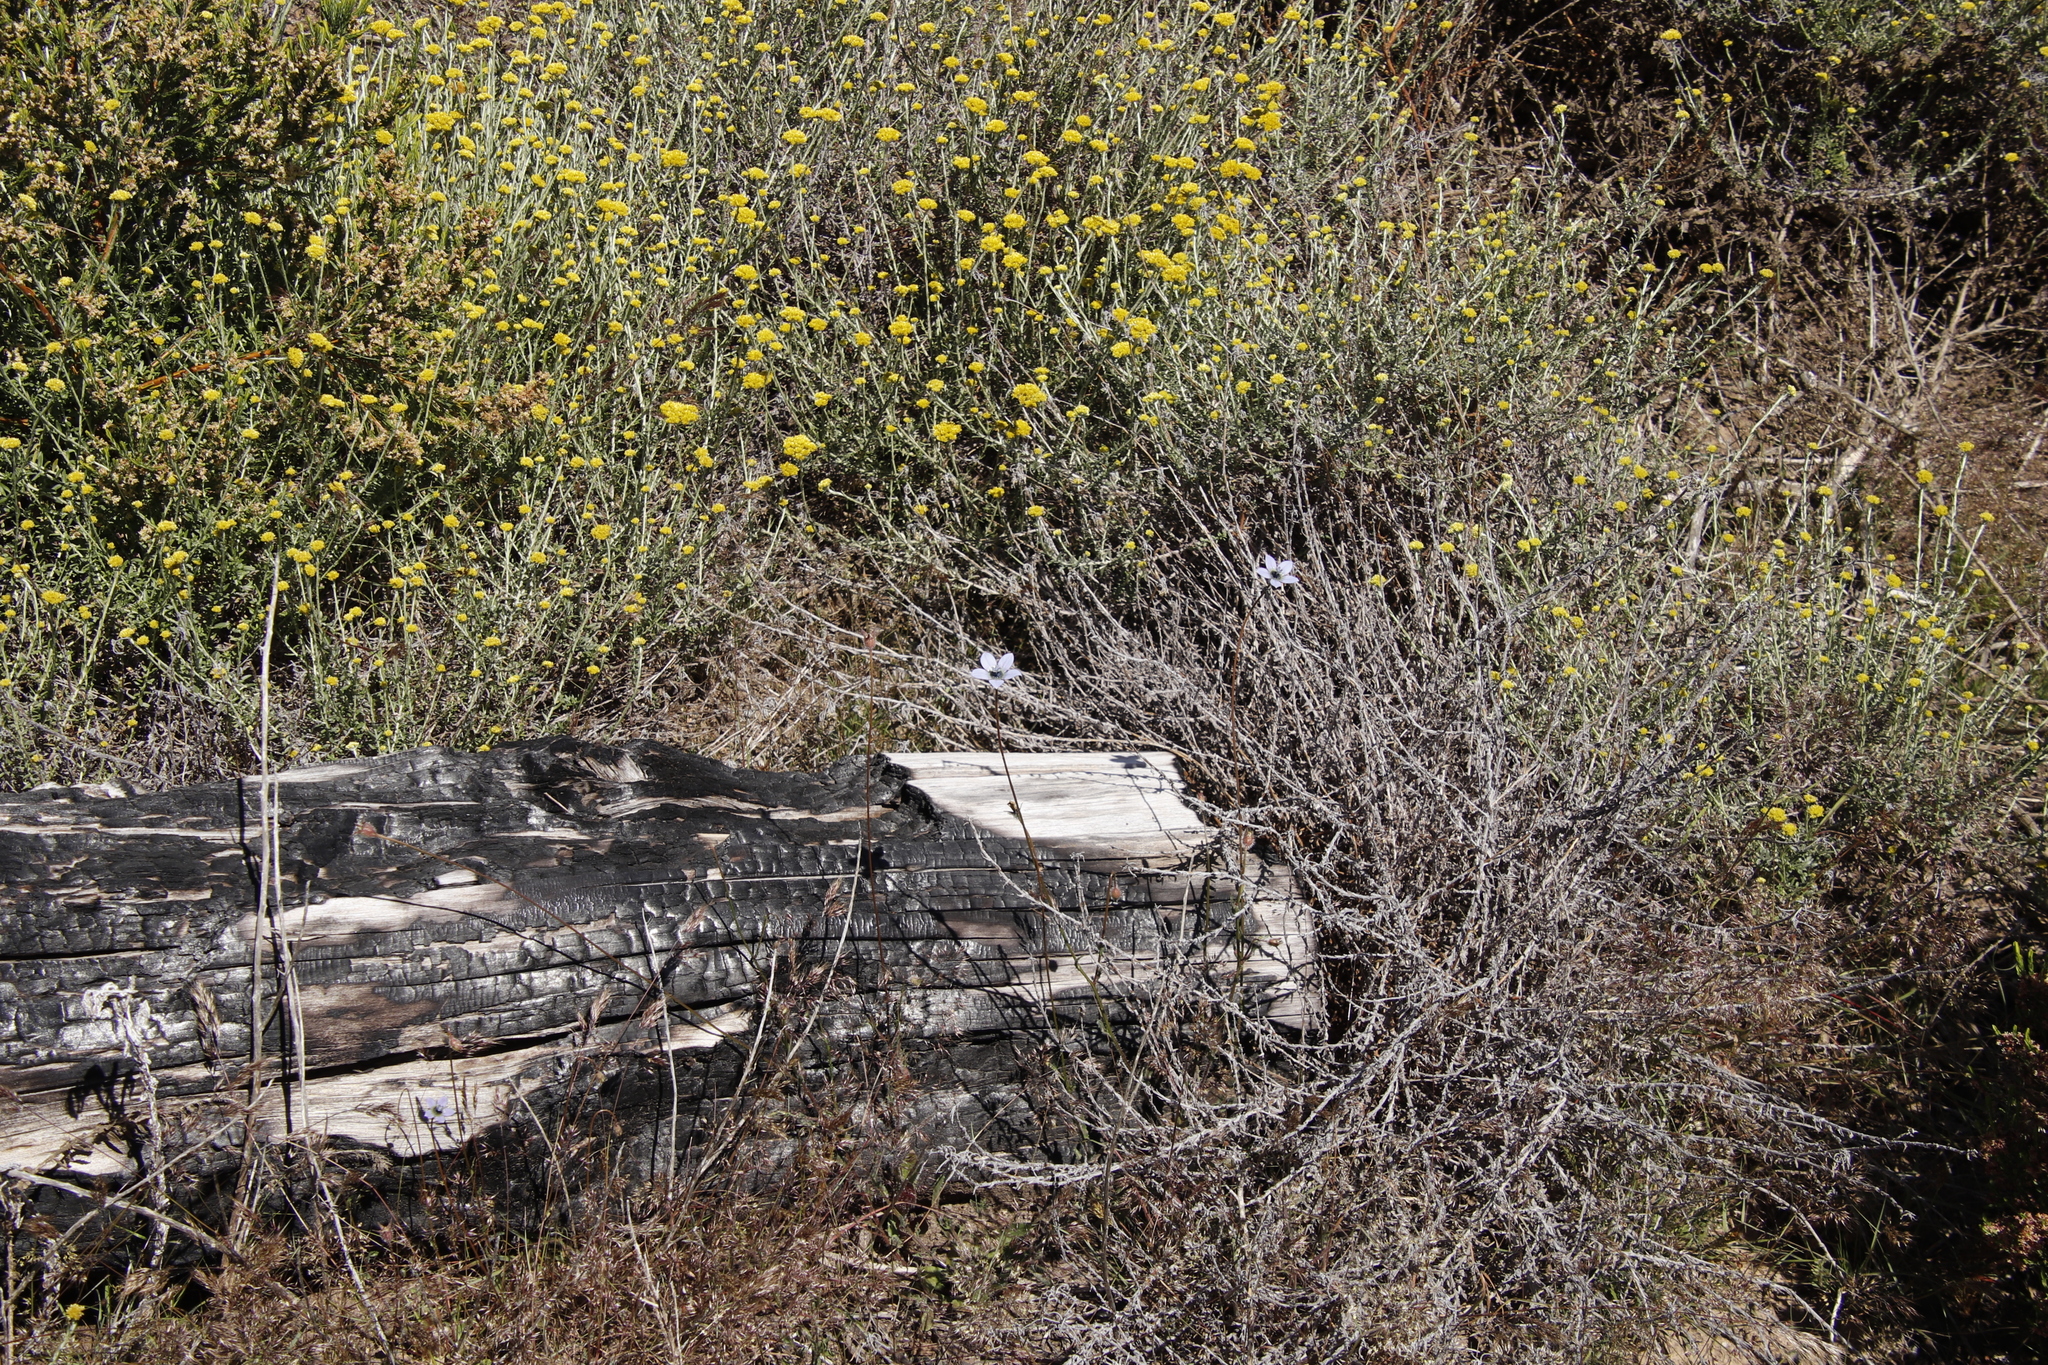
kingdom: Plantae
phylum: Tracheophyta
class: Magnoliopsida
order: Asterales
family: Campanulaceae
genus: Wahlenbergia
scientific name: Wahlenbergia capensis
